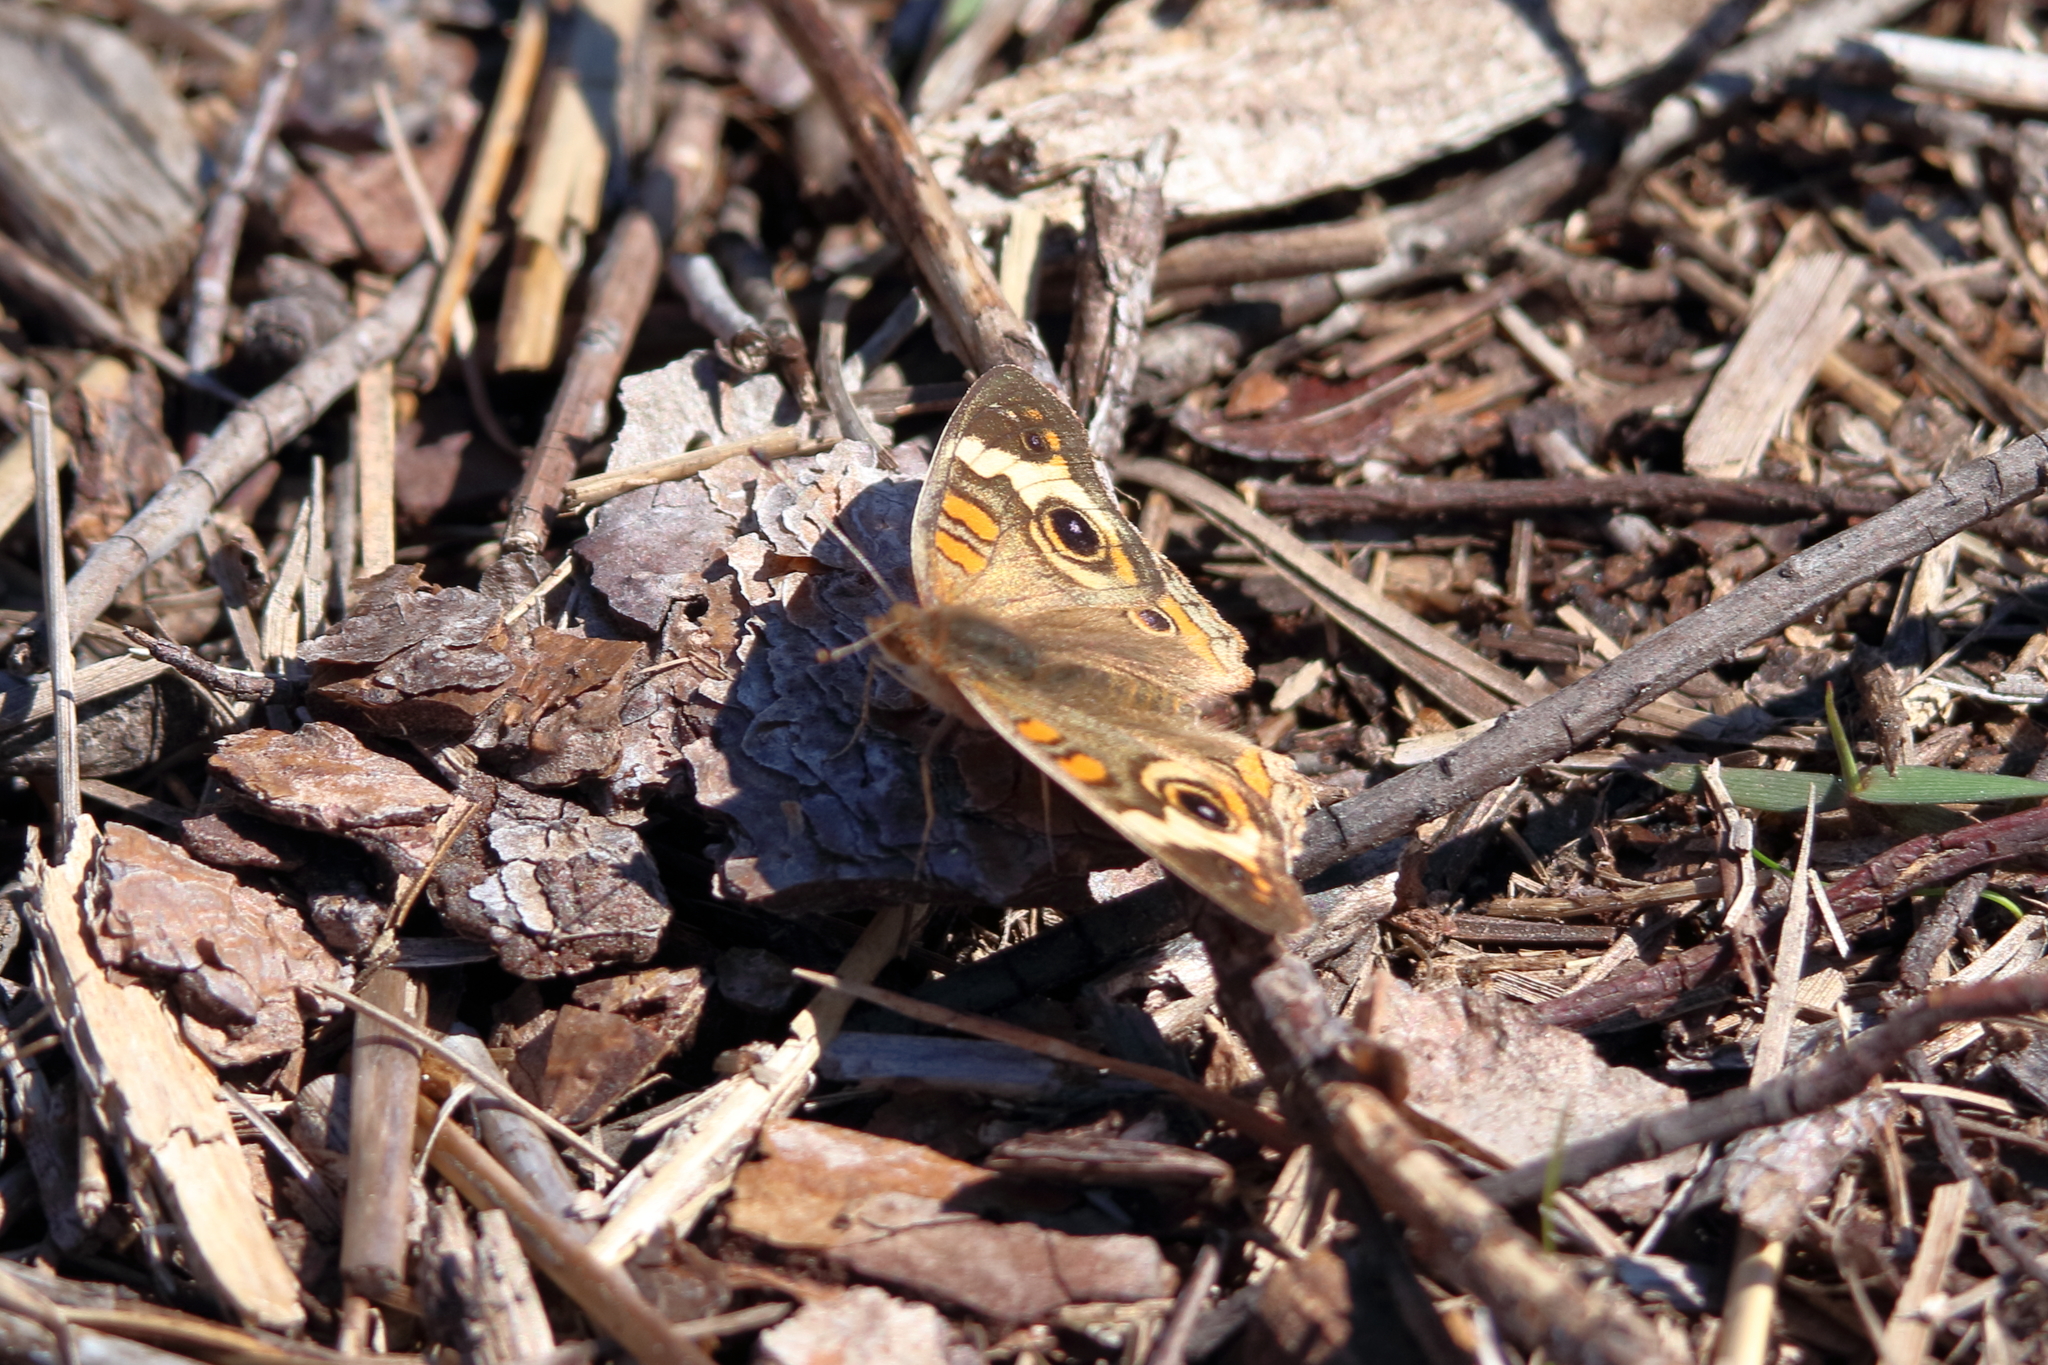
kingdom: Animalia
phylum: Arthropoda
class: Insecta
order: Lepidoptera
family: Nymphalidae
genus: Junonia
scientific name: Junonia coenia
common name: Common buckeye
